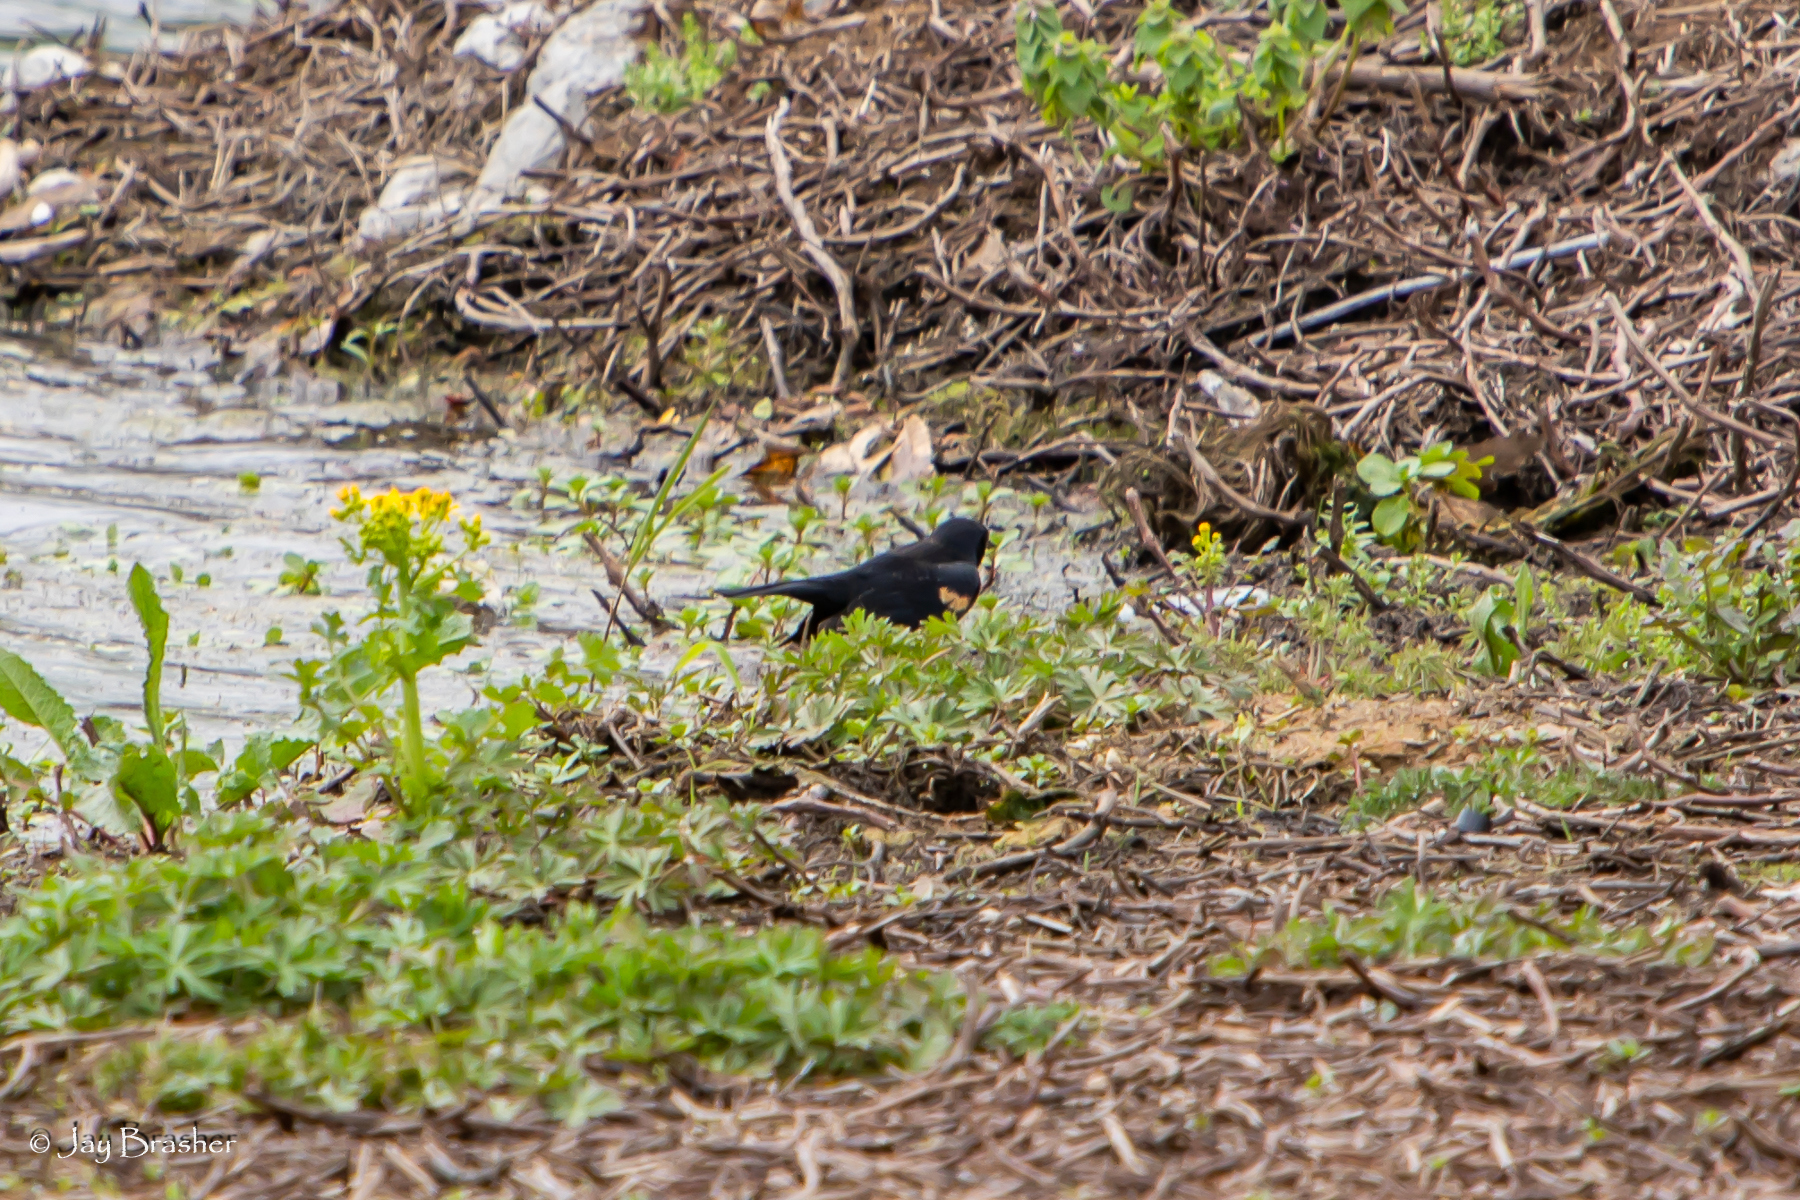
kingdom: Animalia
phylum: Chordata
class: Aves
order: Passeriformes
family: Icteridae
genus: Agelaius
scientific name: Agelaius phoeniceus
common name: Red-winged blackbird
